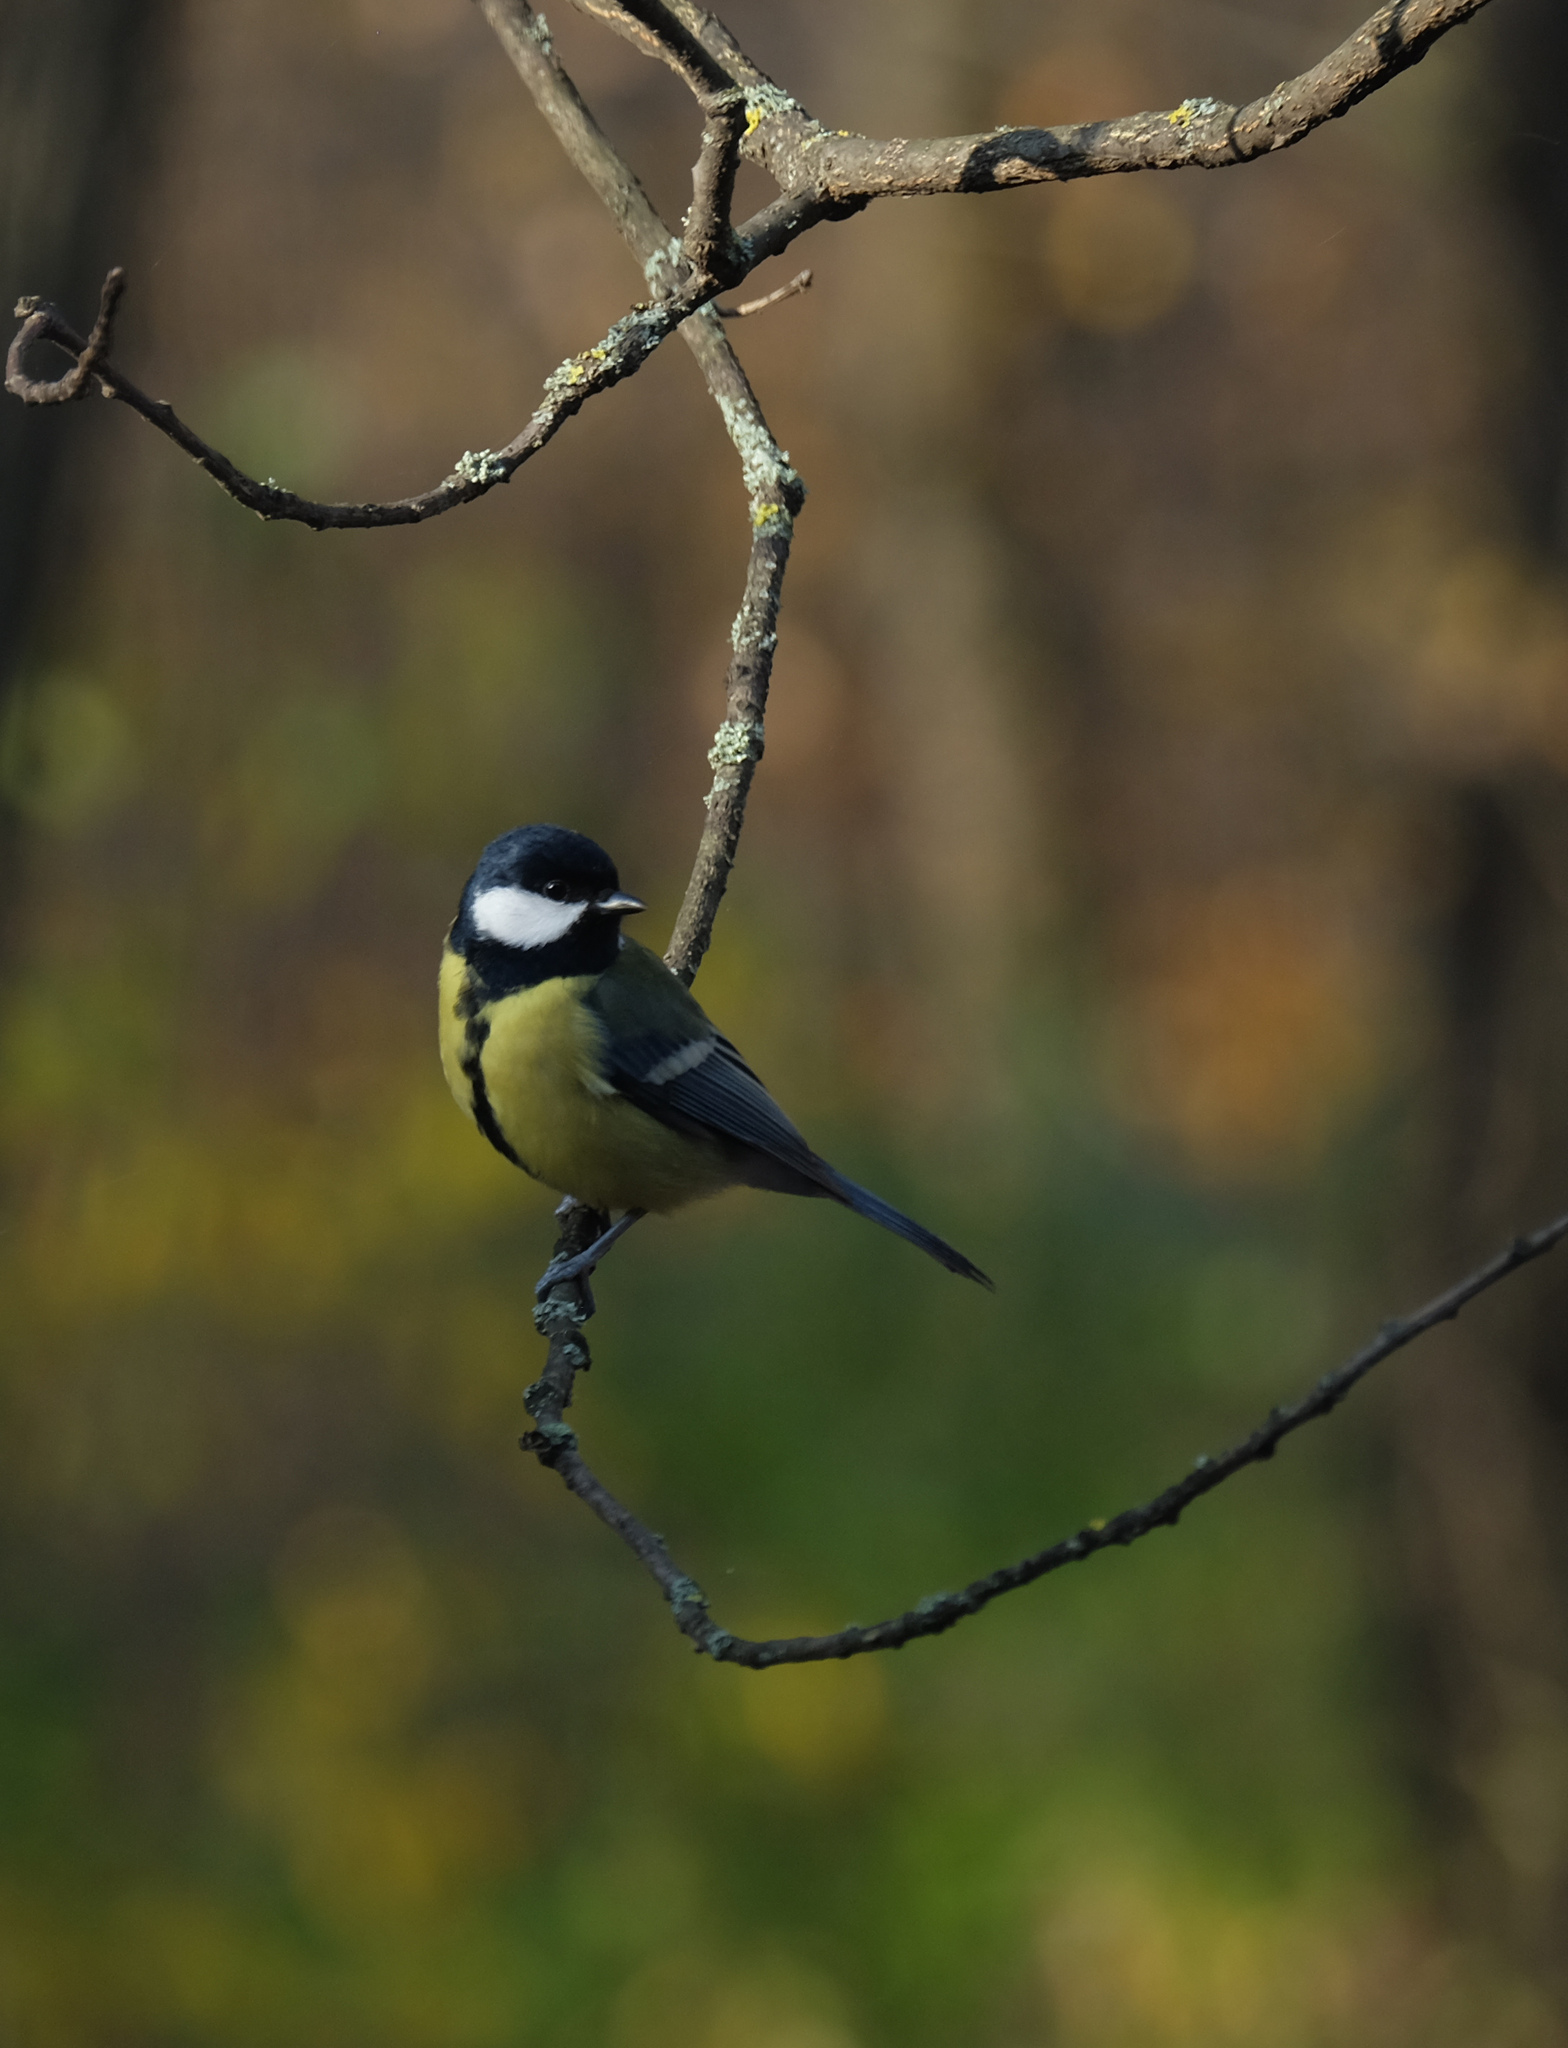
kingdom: Animalia
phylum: Chordata
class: Aves
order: Passeriformes
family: Paridae
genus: Parus
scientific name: Parus major
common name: Great tit
